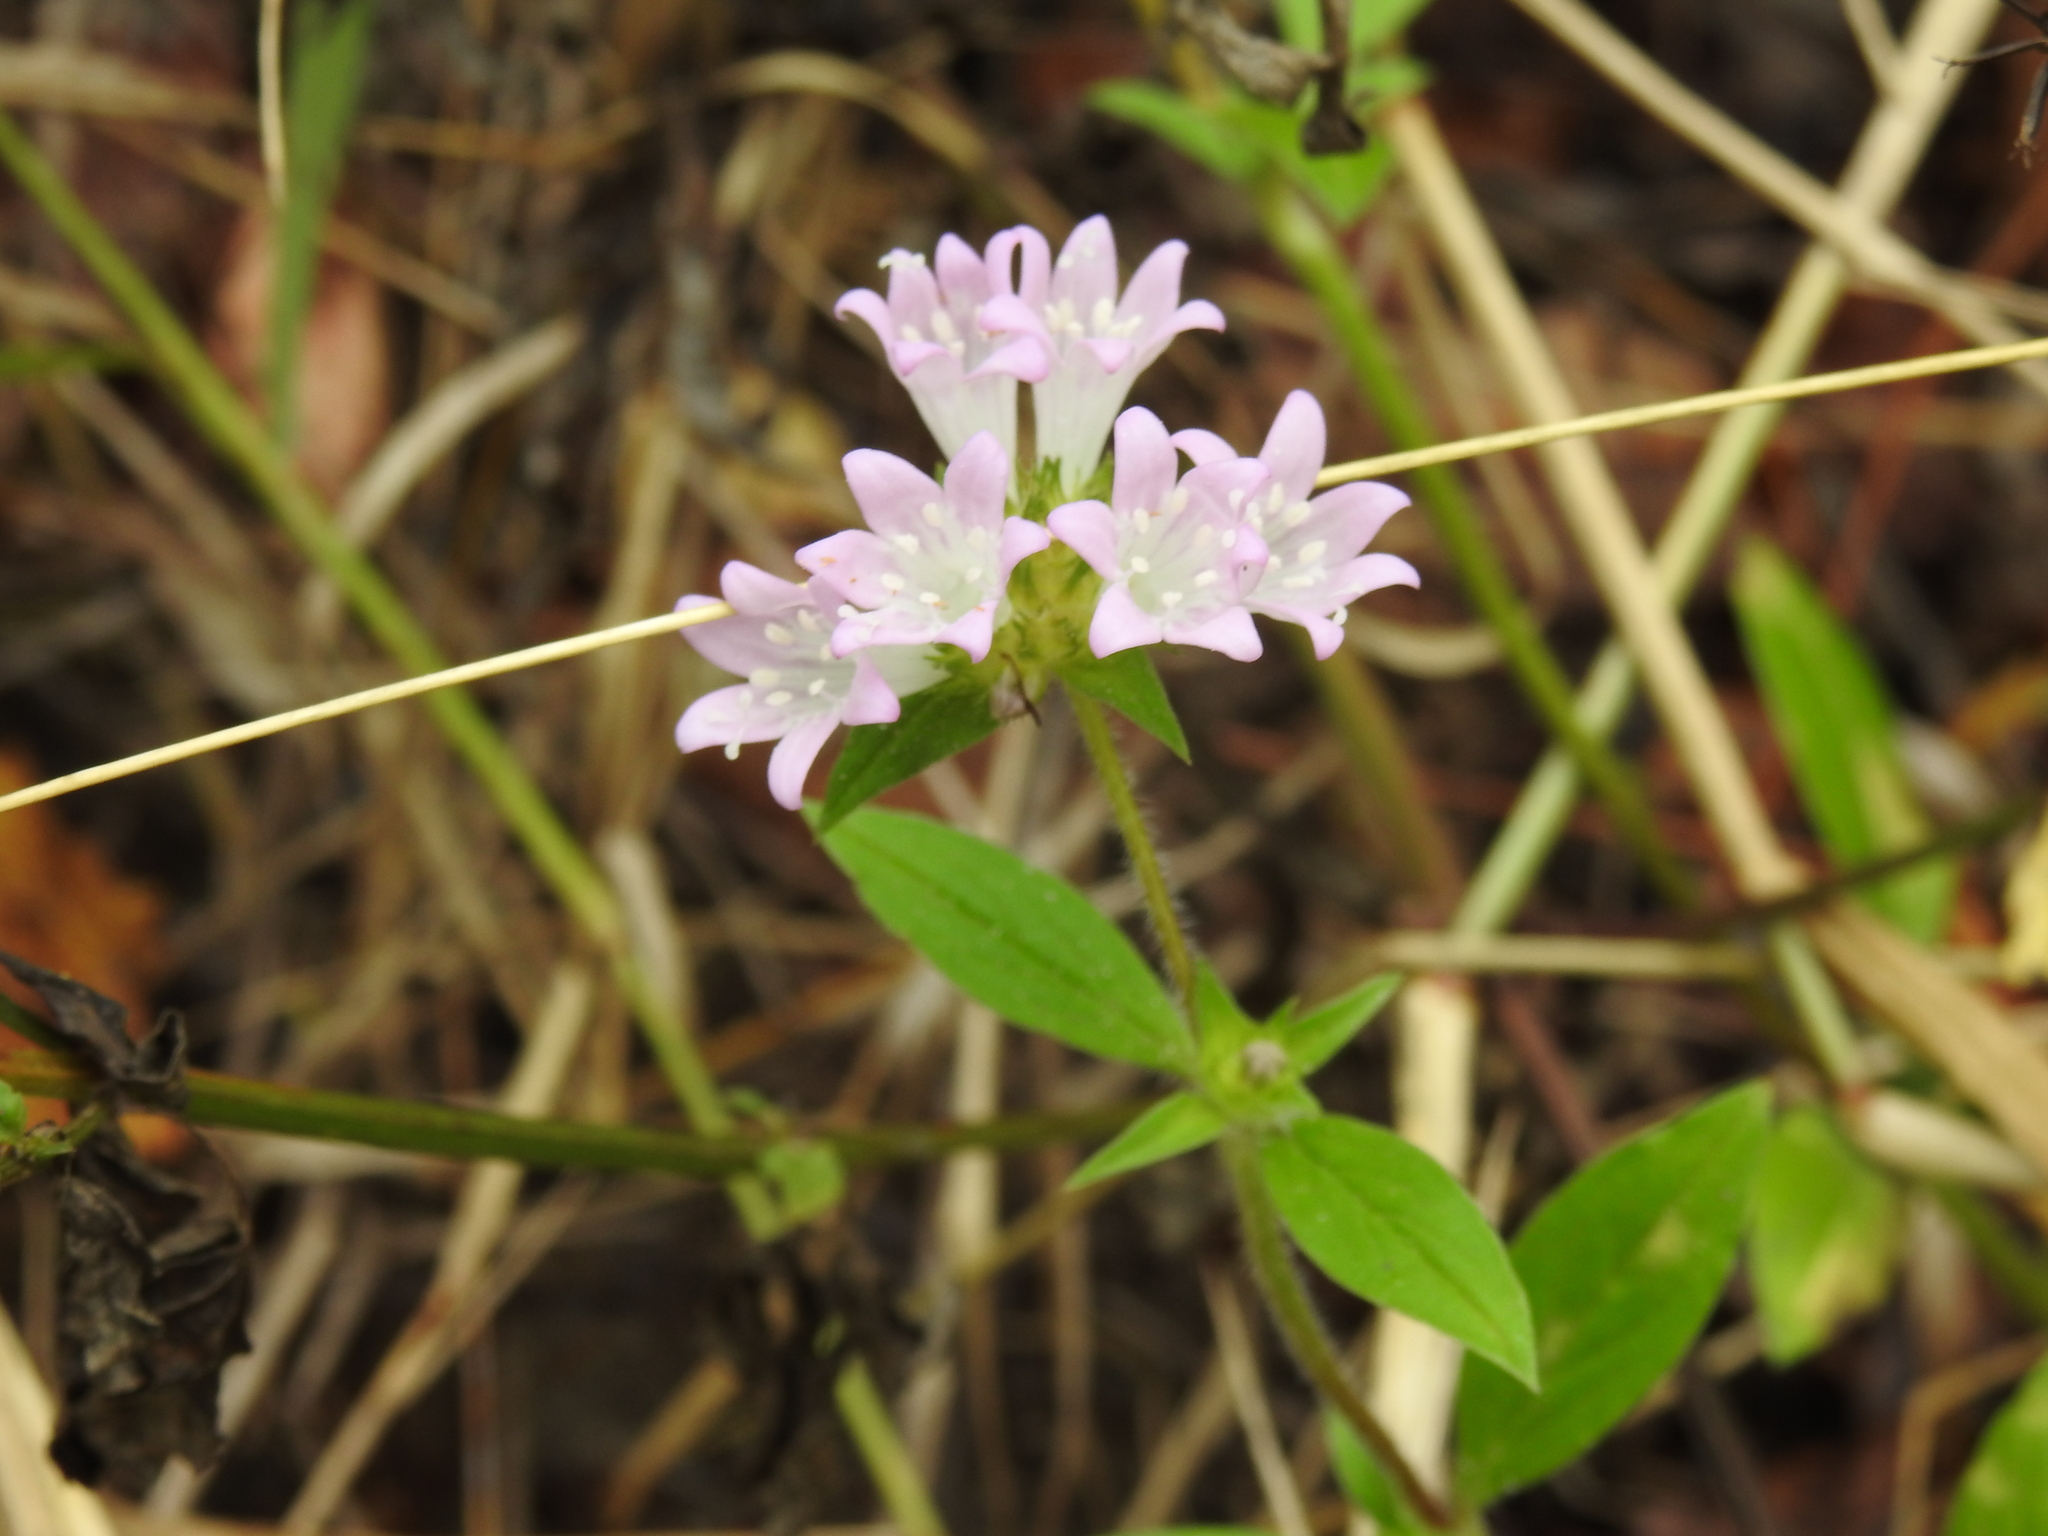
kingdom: Plantae
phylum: Tracheophyta
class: Magnoliopsida
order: Gentianales
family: Rubiaceae
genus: Richardia
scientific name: Richardia grandiflora
